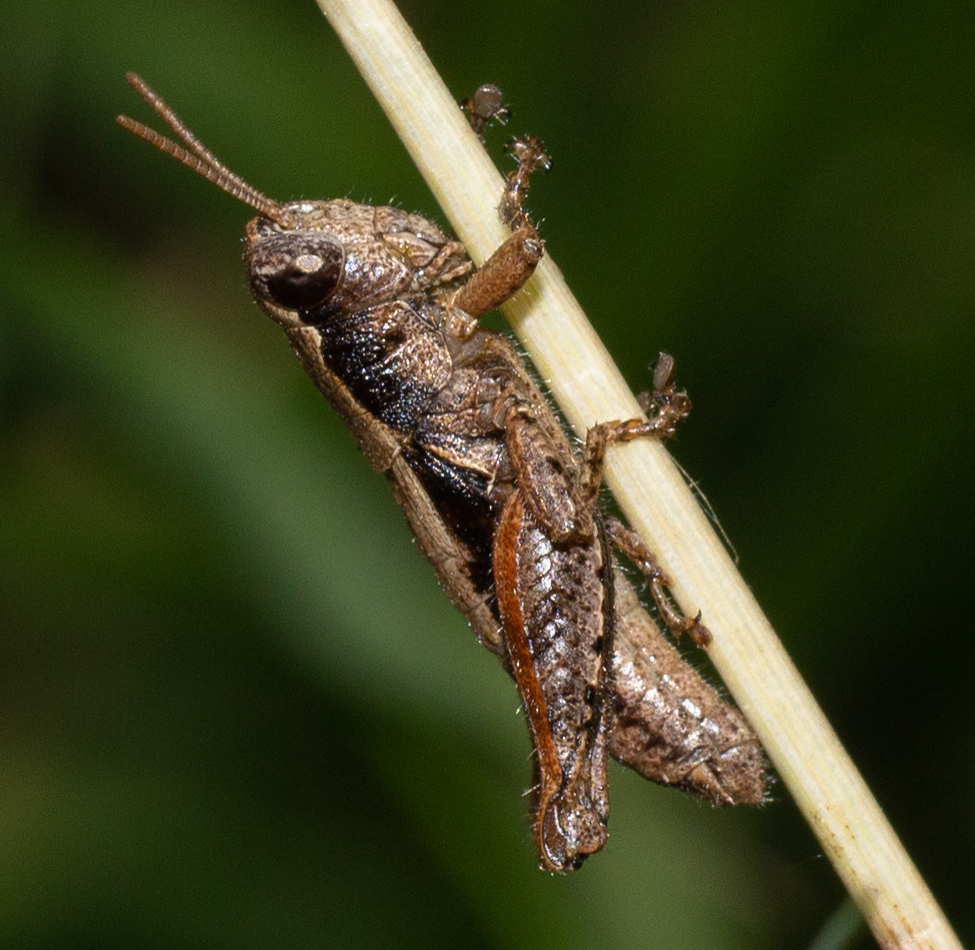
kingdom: Animalia
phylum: Arthropoda
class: Insecta
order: Orthoptera
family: Acrididae
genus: Pezotettix
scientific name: Pezotettix giornae
